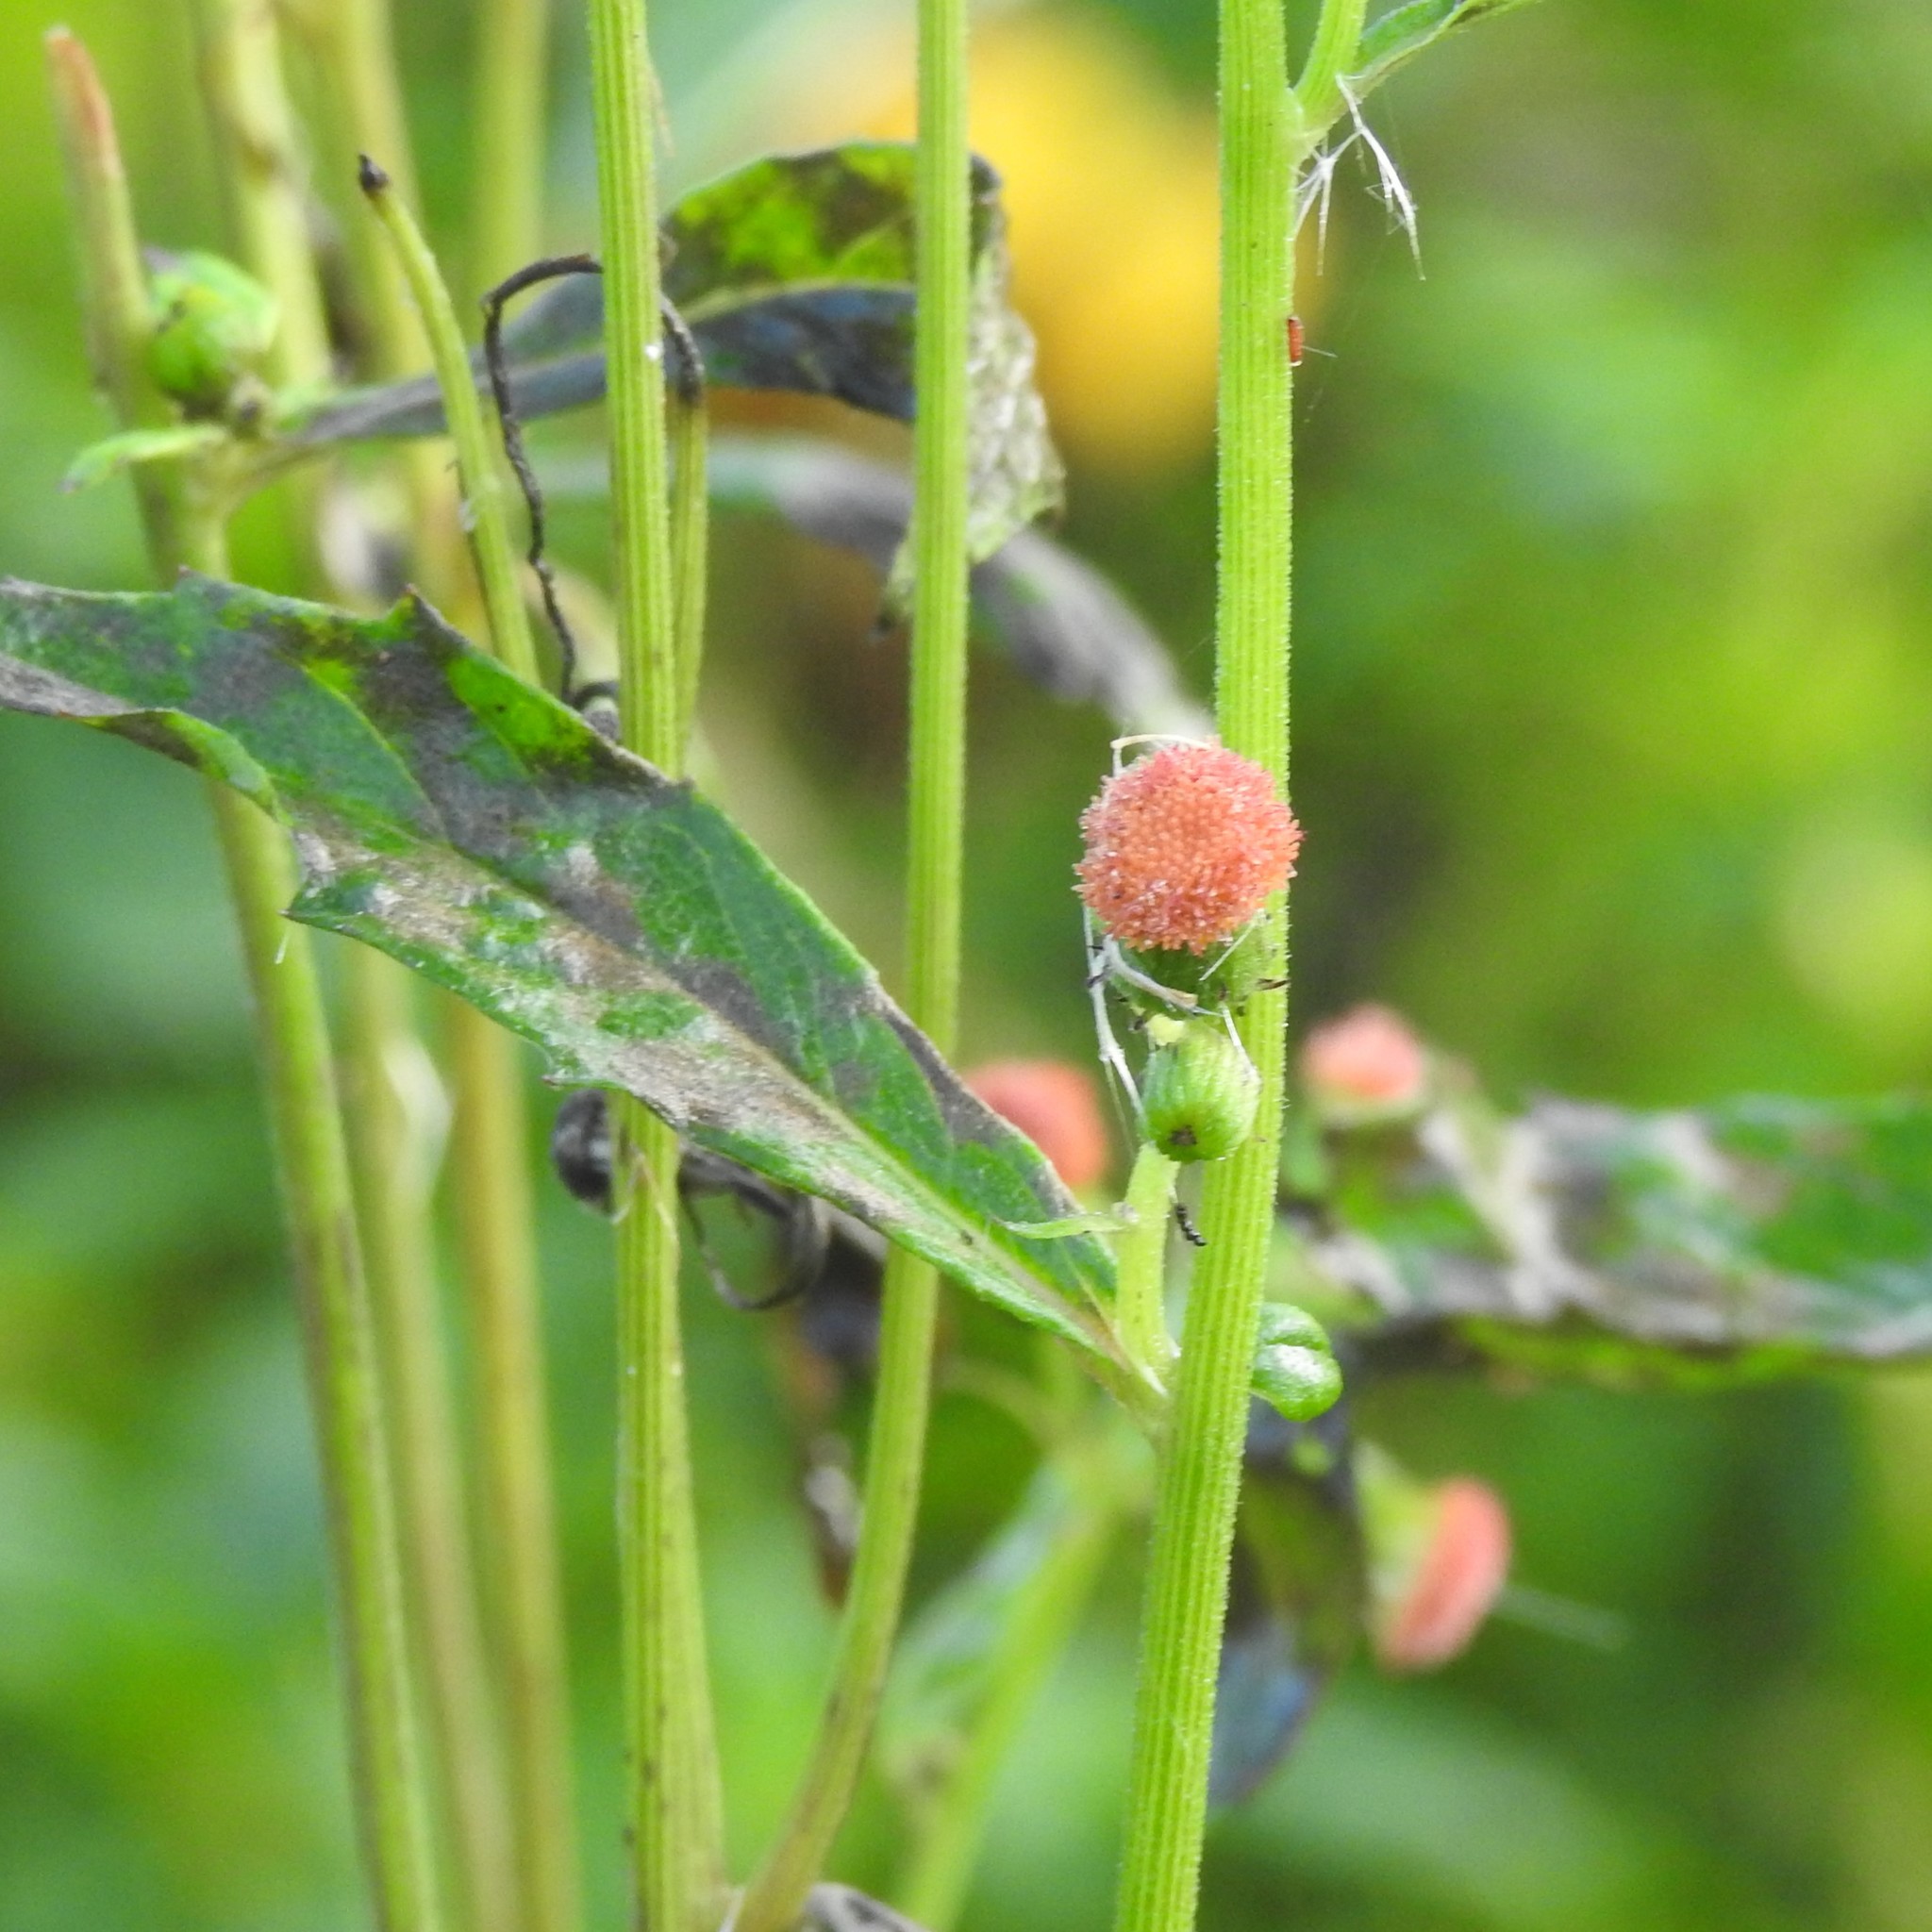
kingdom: Plantae
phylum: Tracheophyta
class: Magnoliopsida
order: Asterales
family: Asteraceae
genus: Crassocephalum
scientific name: Crassocephalum crepidioides
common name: Redflower ragleaf
